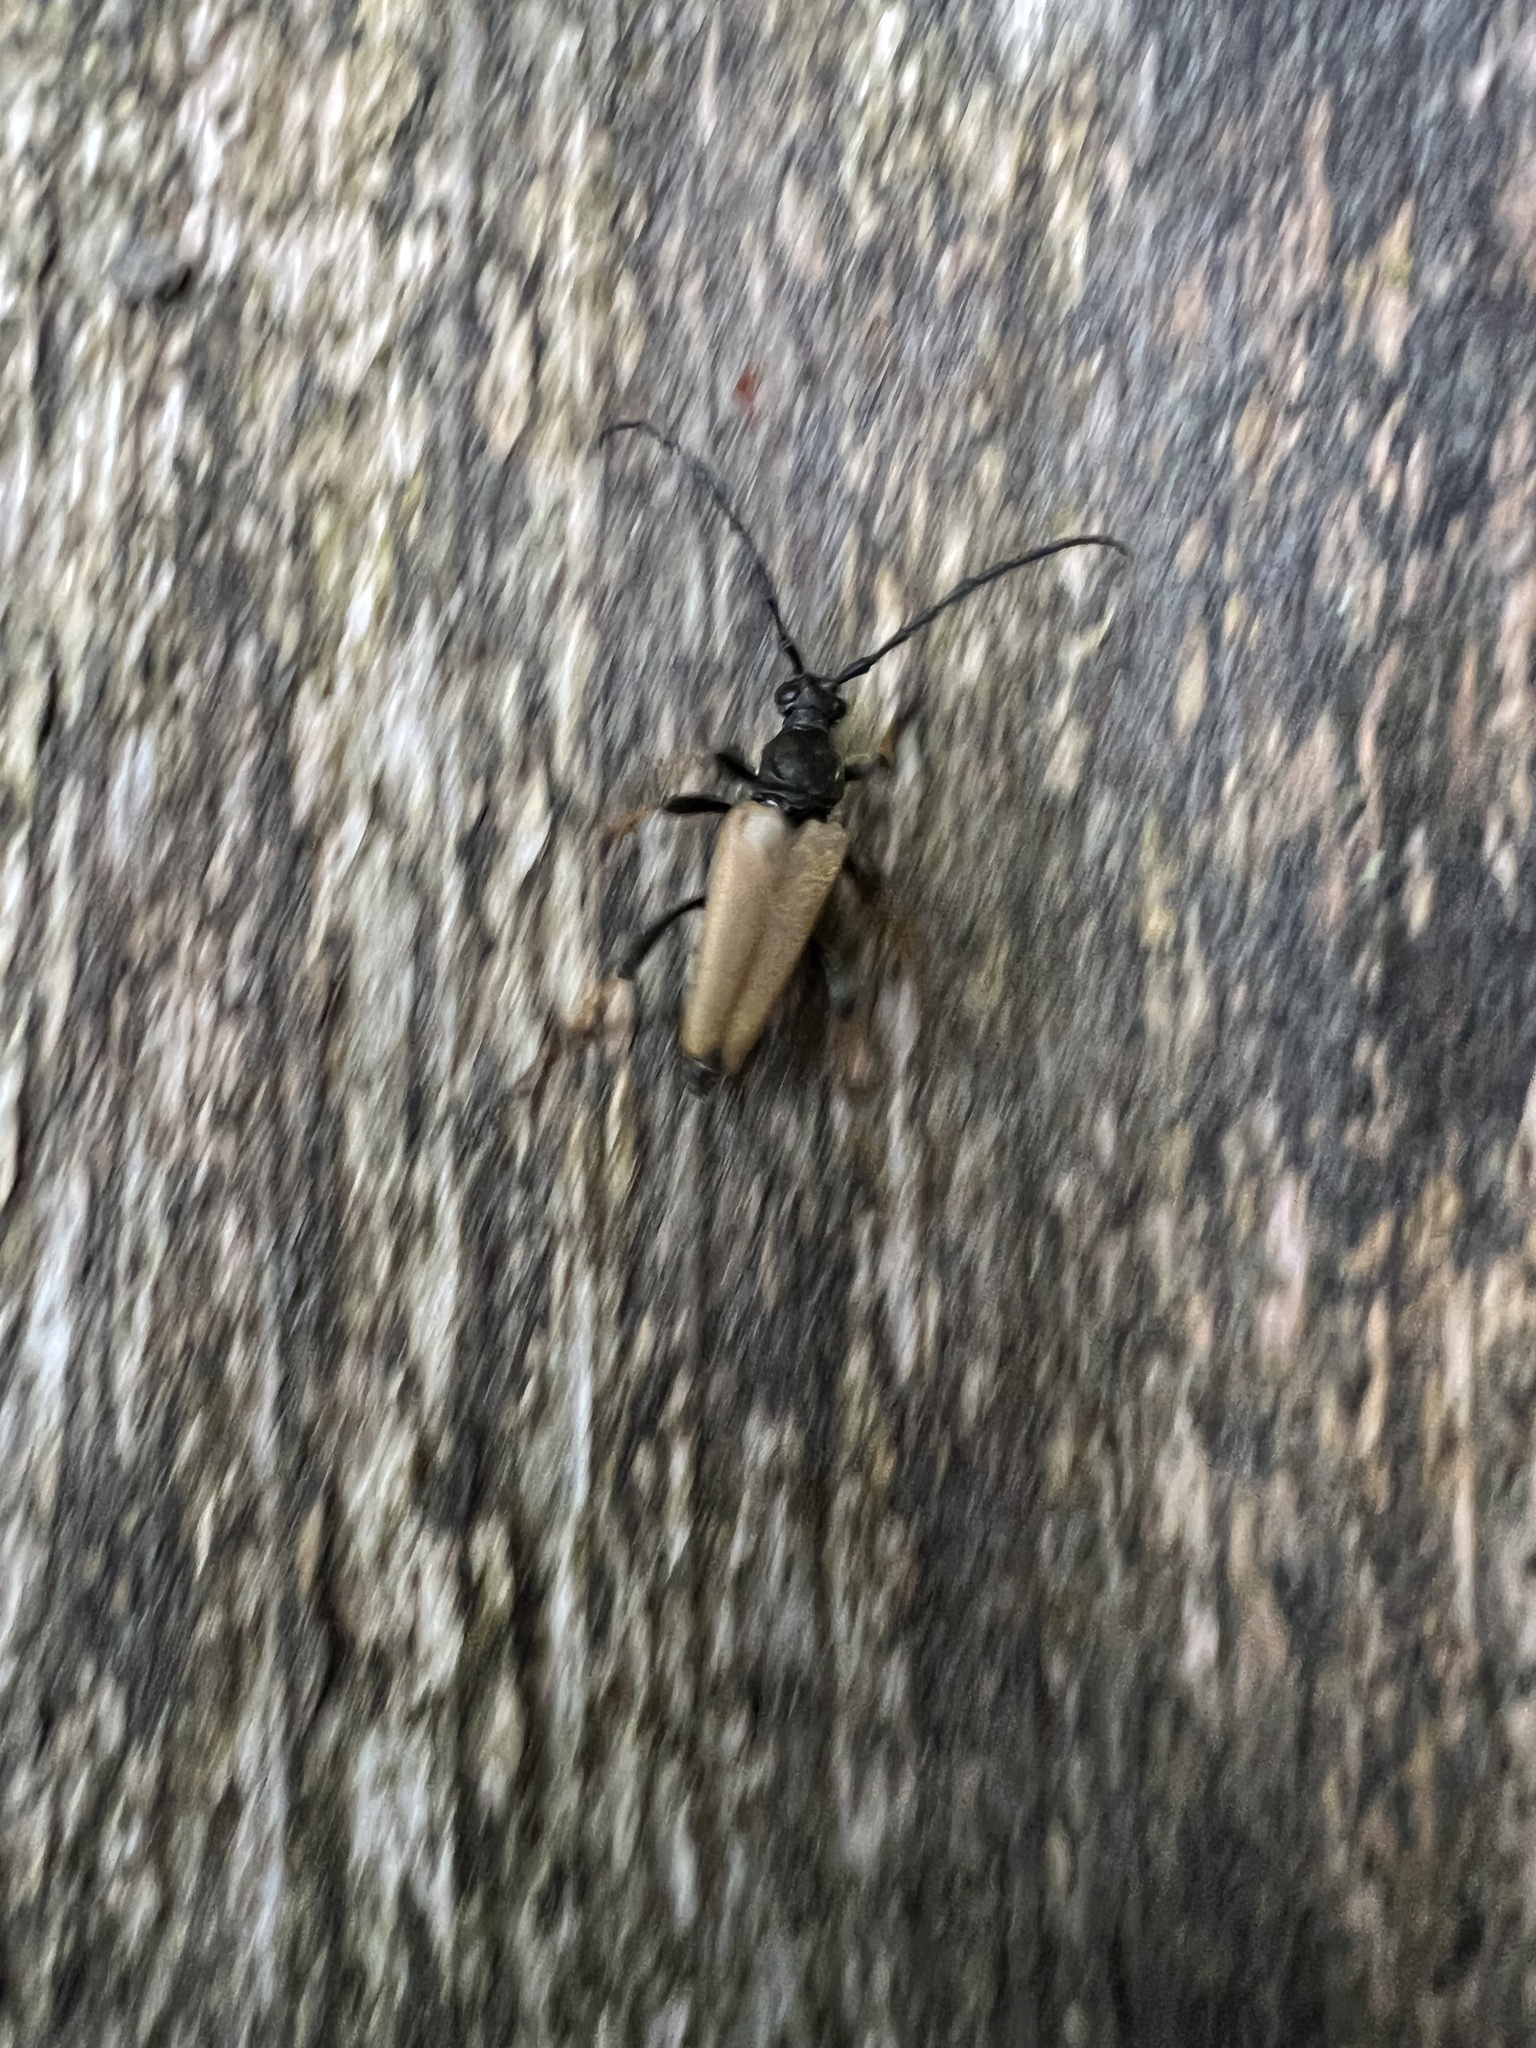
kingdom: Animalia
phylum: Arthropoda
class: Insecta
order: Coleoptera
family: Cerambycidae
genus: Stictoleptura
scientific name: Stictoleptura rubra
